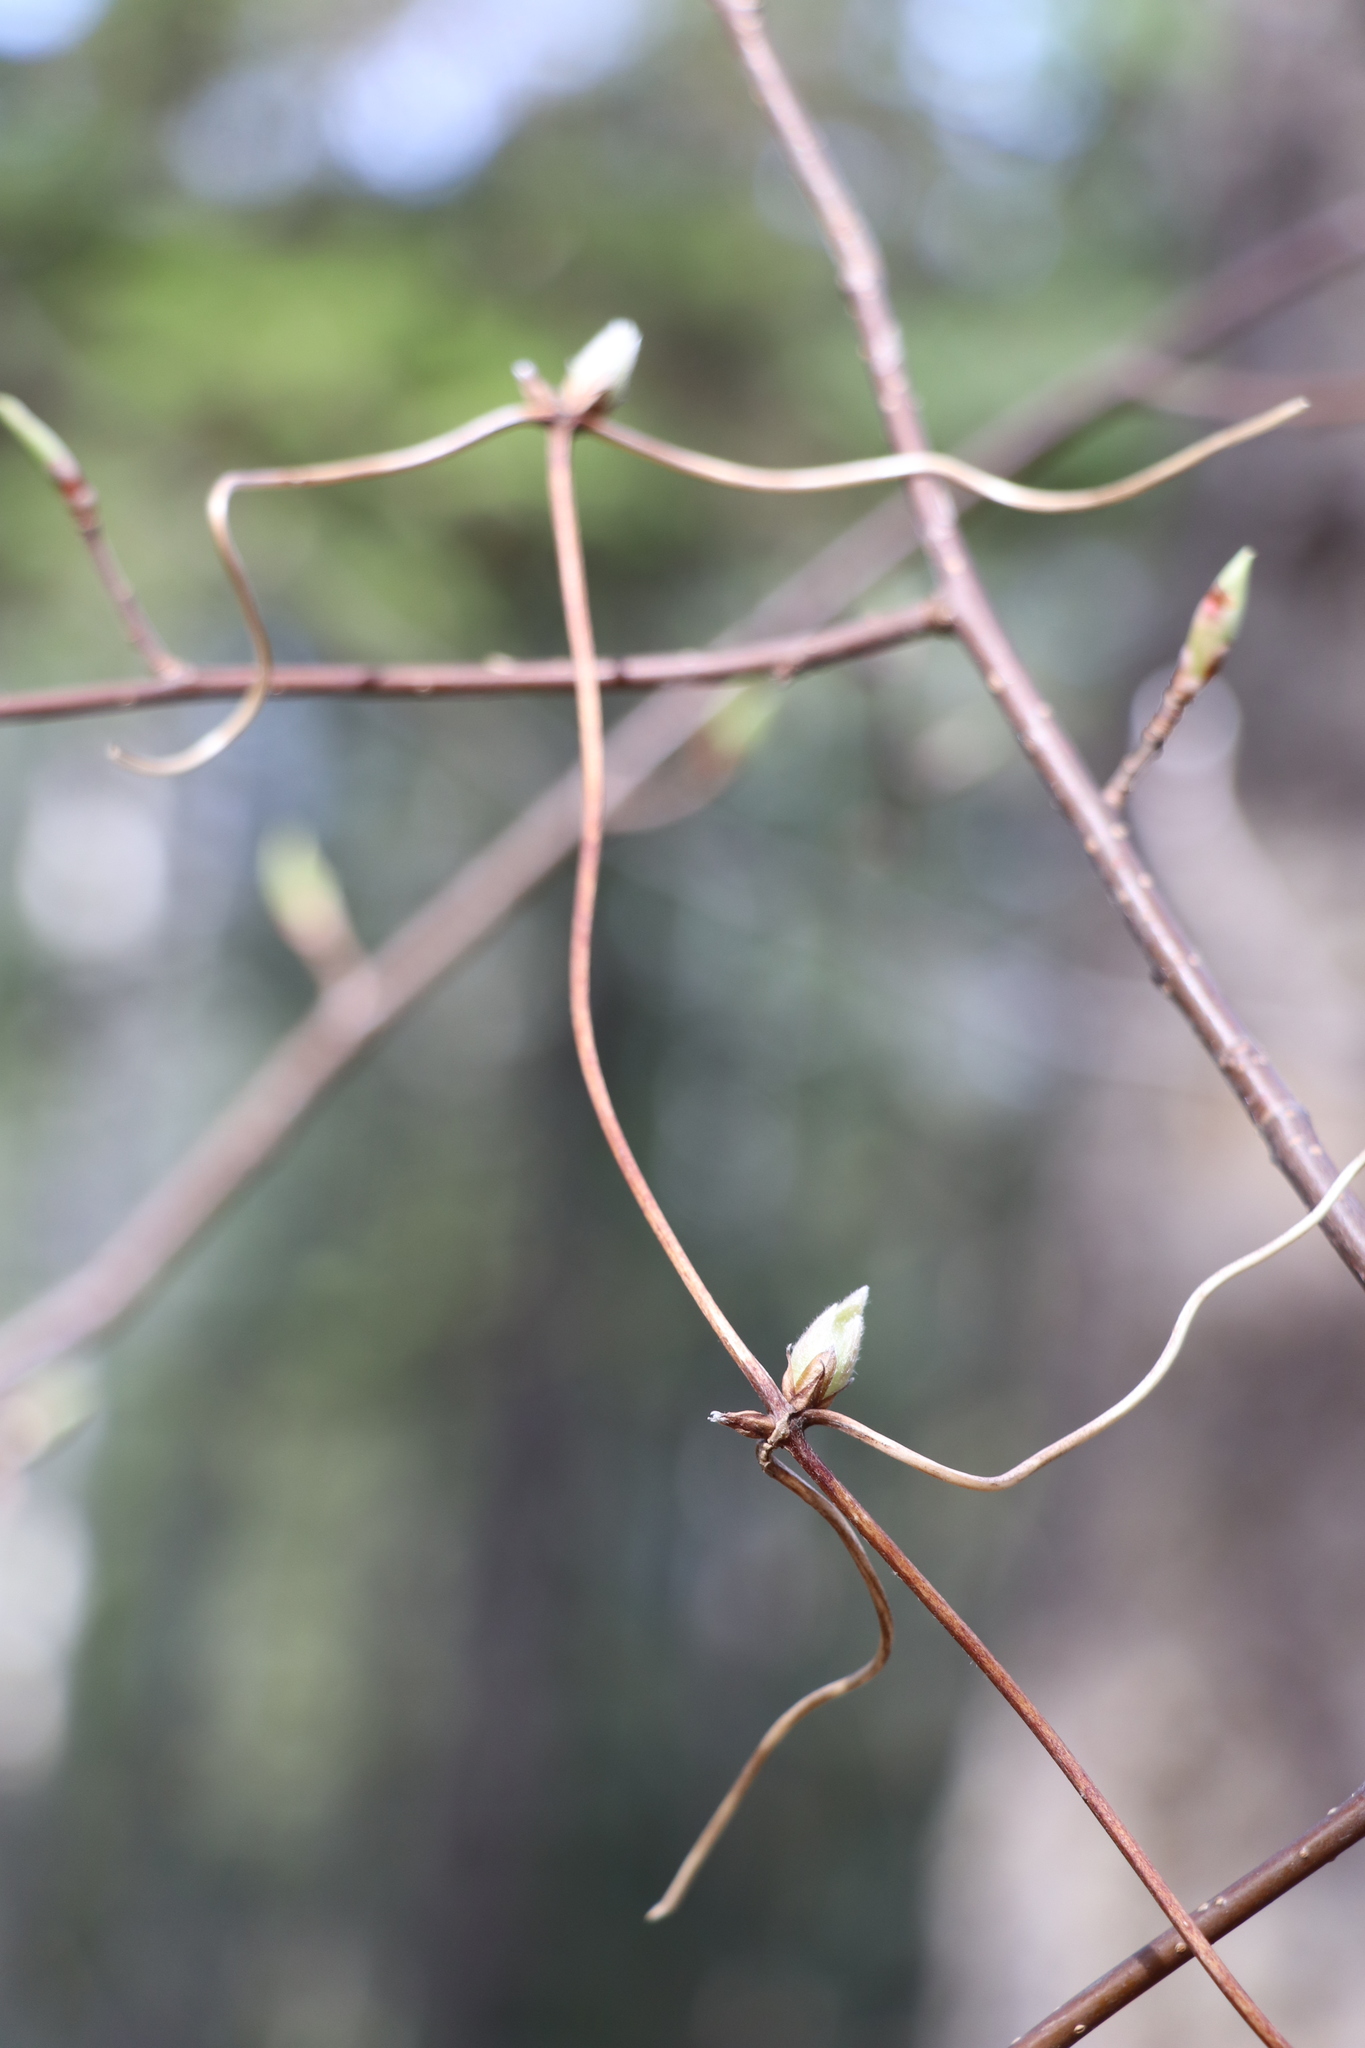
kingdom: Plantae
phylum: Tracheophyta
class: Magnoliopsida
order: Ranunculales
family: Ranunculaceae
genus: Clematis
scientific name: Clematis sibirica
